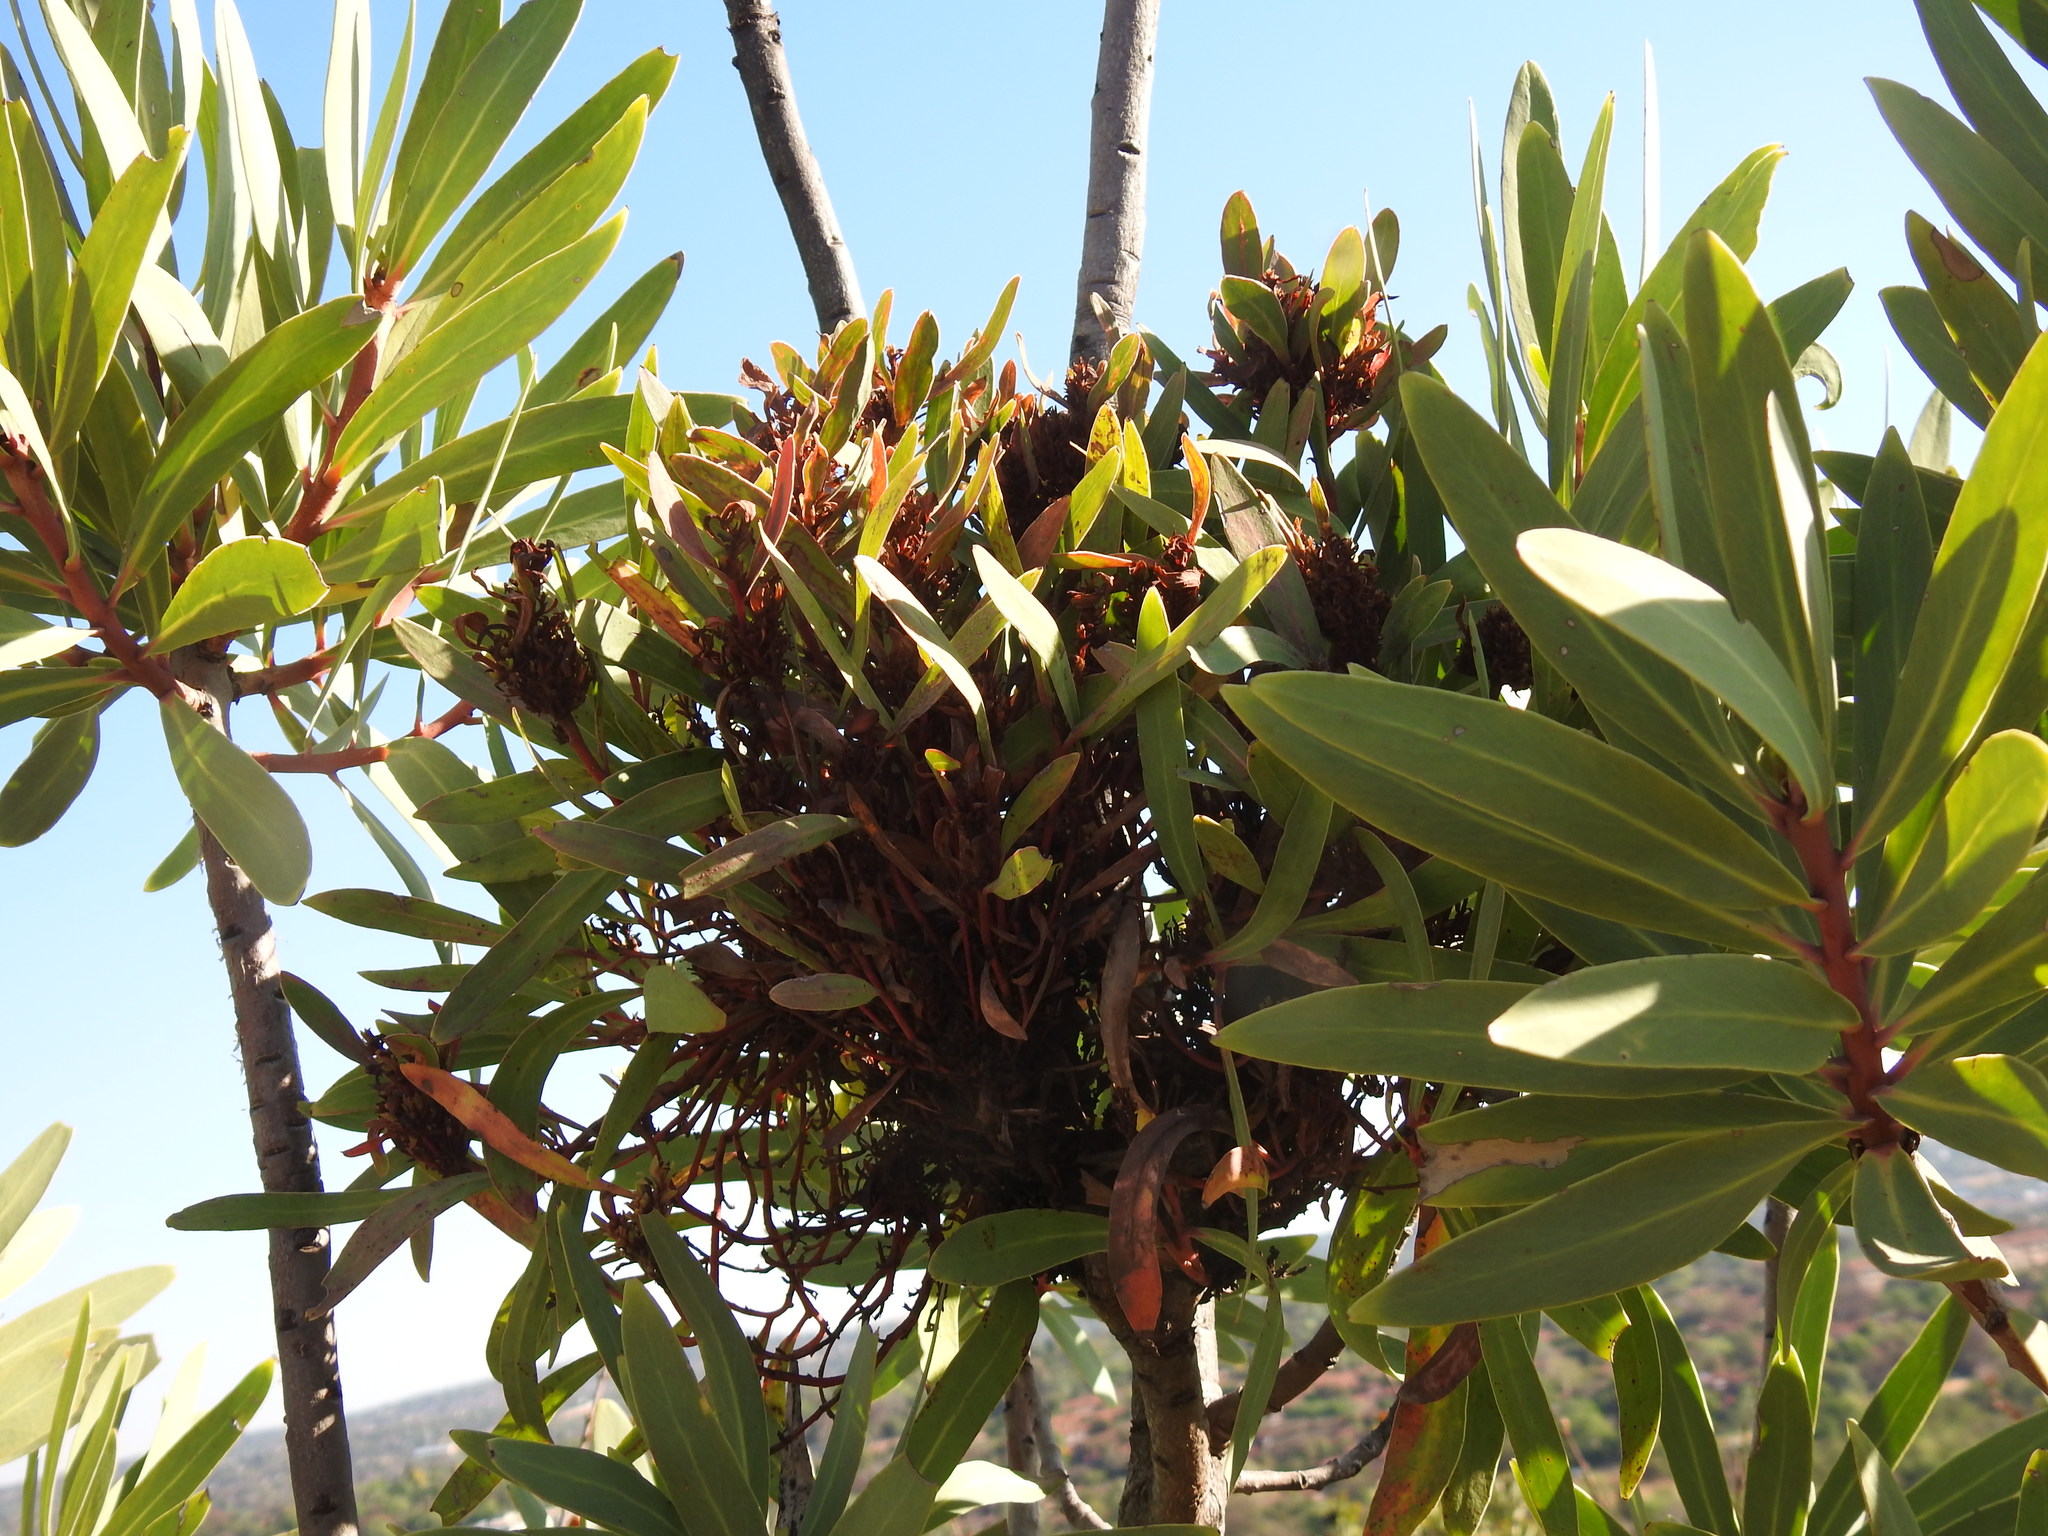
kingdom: Bacteria
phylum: Firmicutes
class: Bacilli
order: Acholeplasmatales
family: Acholeplasmataceae
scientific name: Acholeplasmataceae
